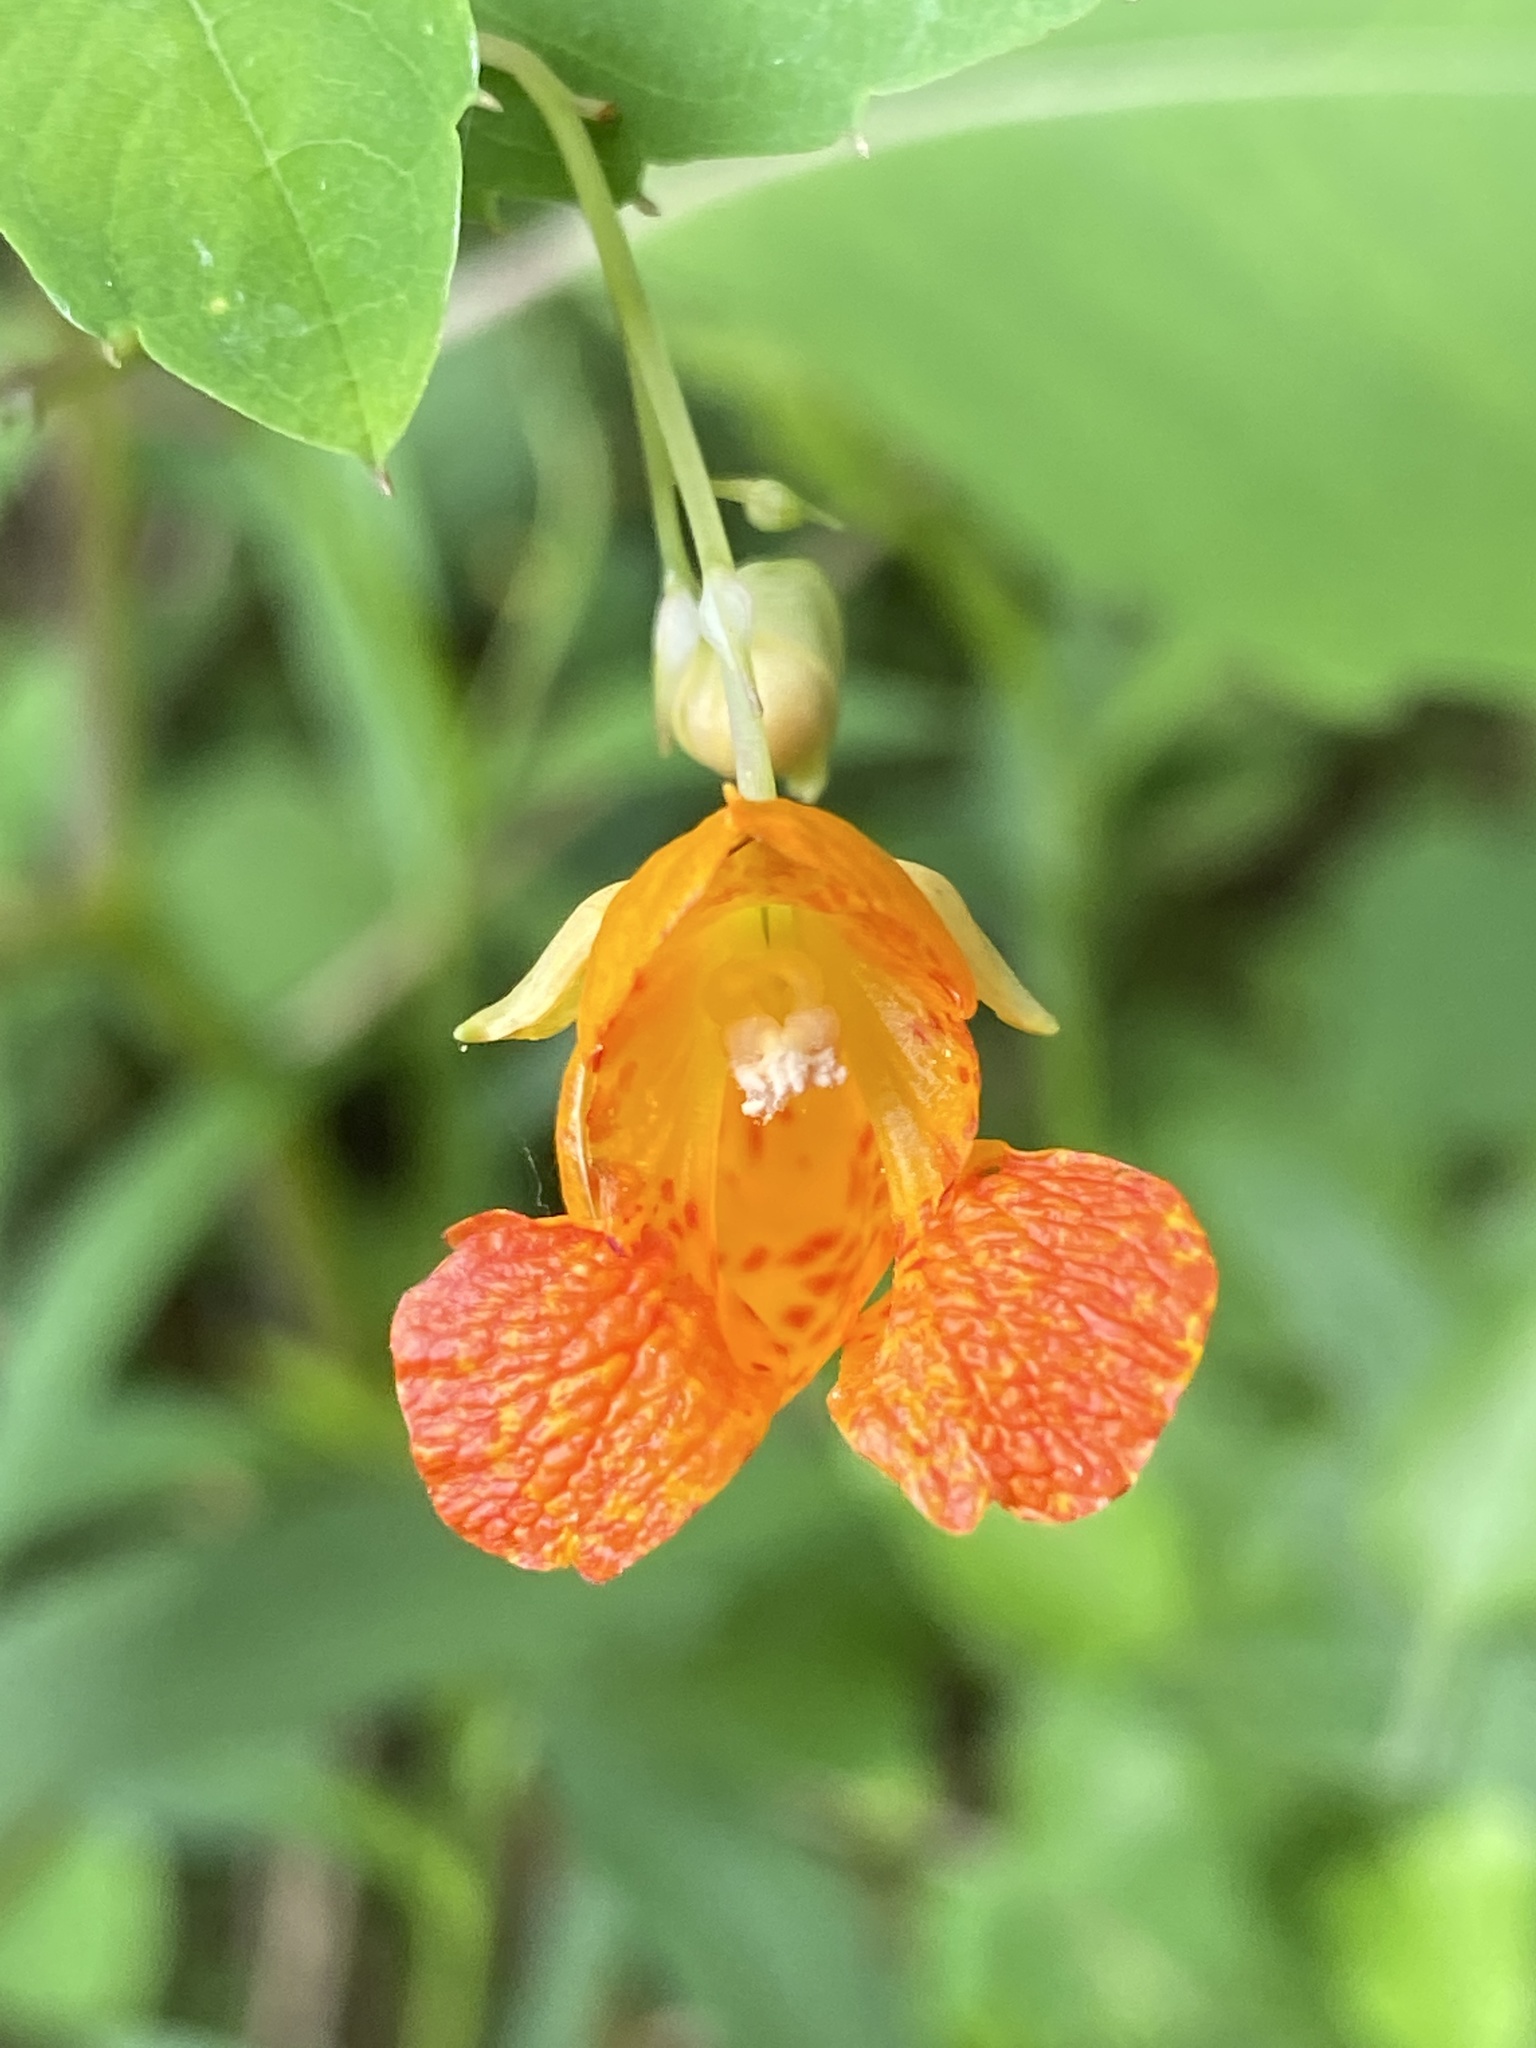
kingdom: Plantae
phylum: Tracheophyta
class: Magnoliopsida
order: Ericales
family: Balsaminaceae
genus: Impatiens
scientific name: Impatiens capensis
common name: Orange balsam
